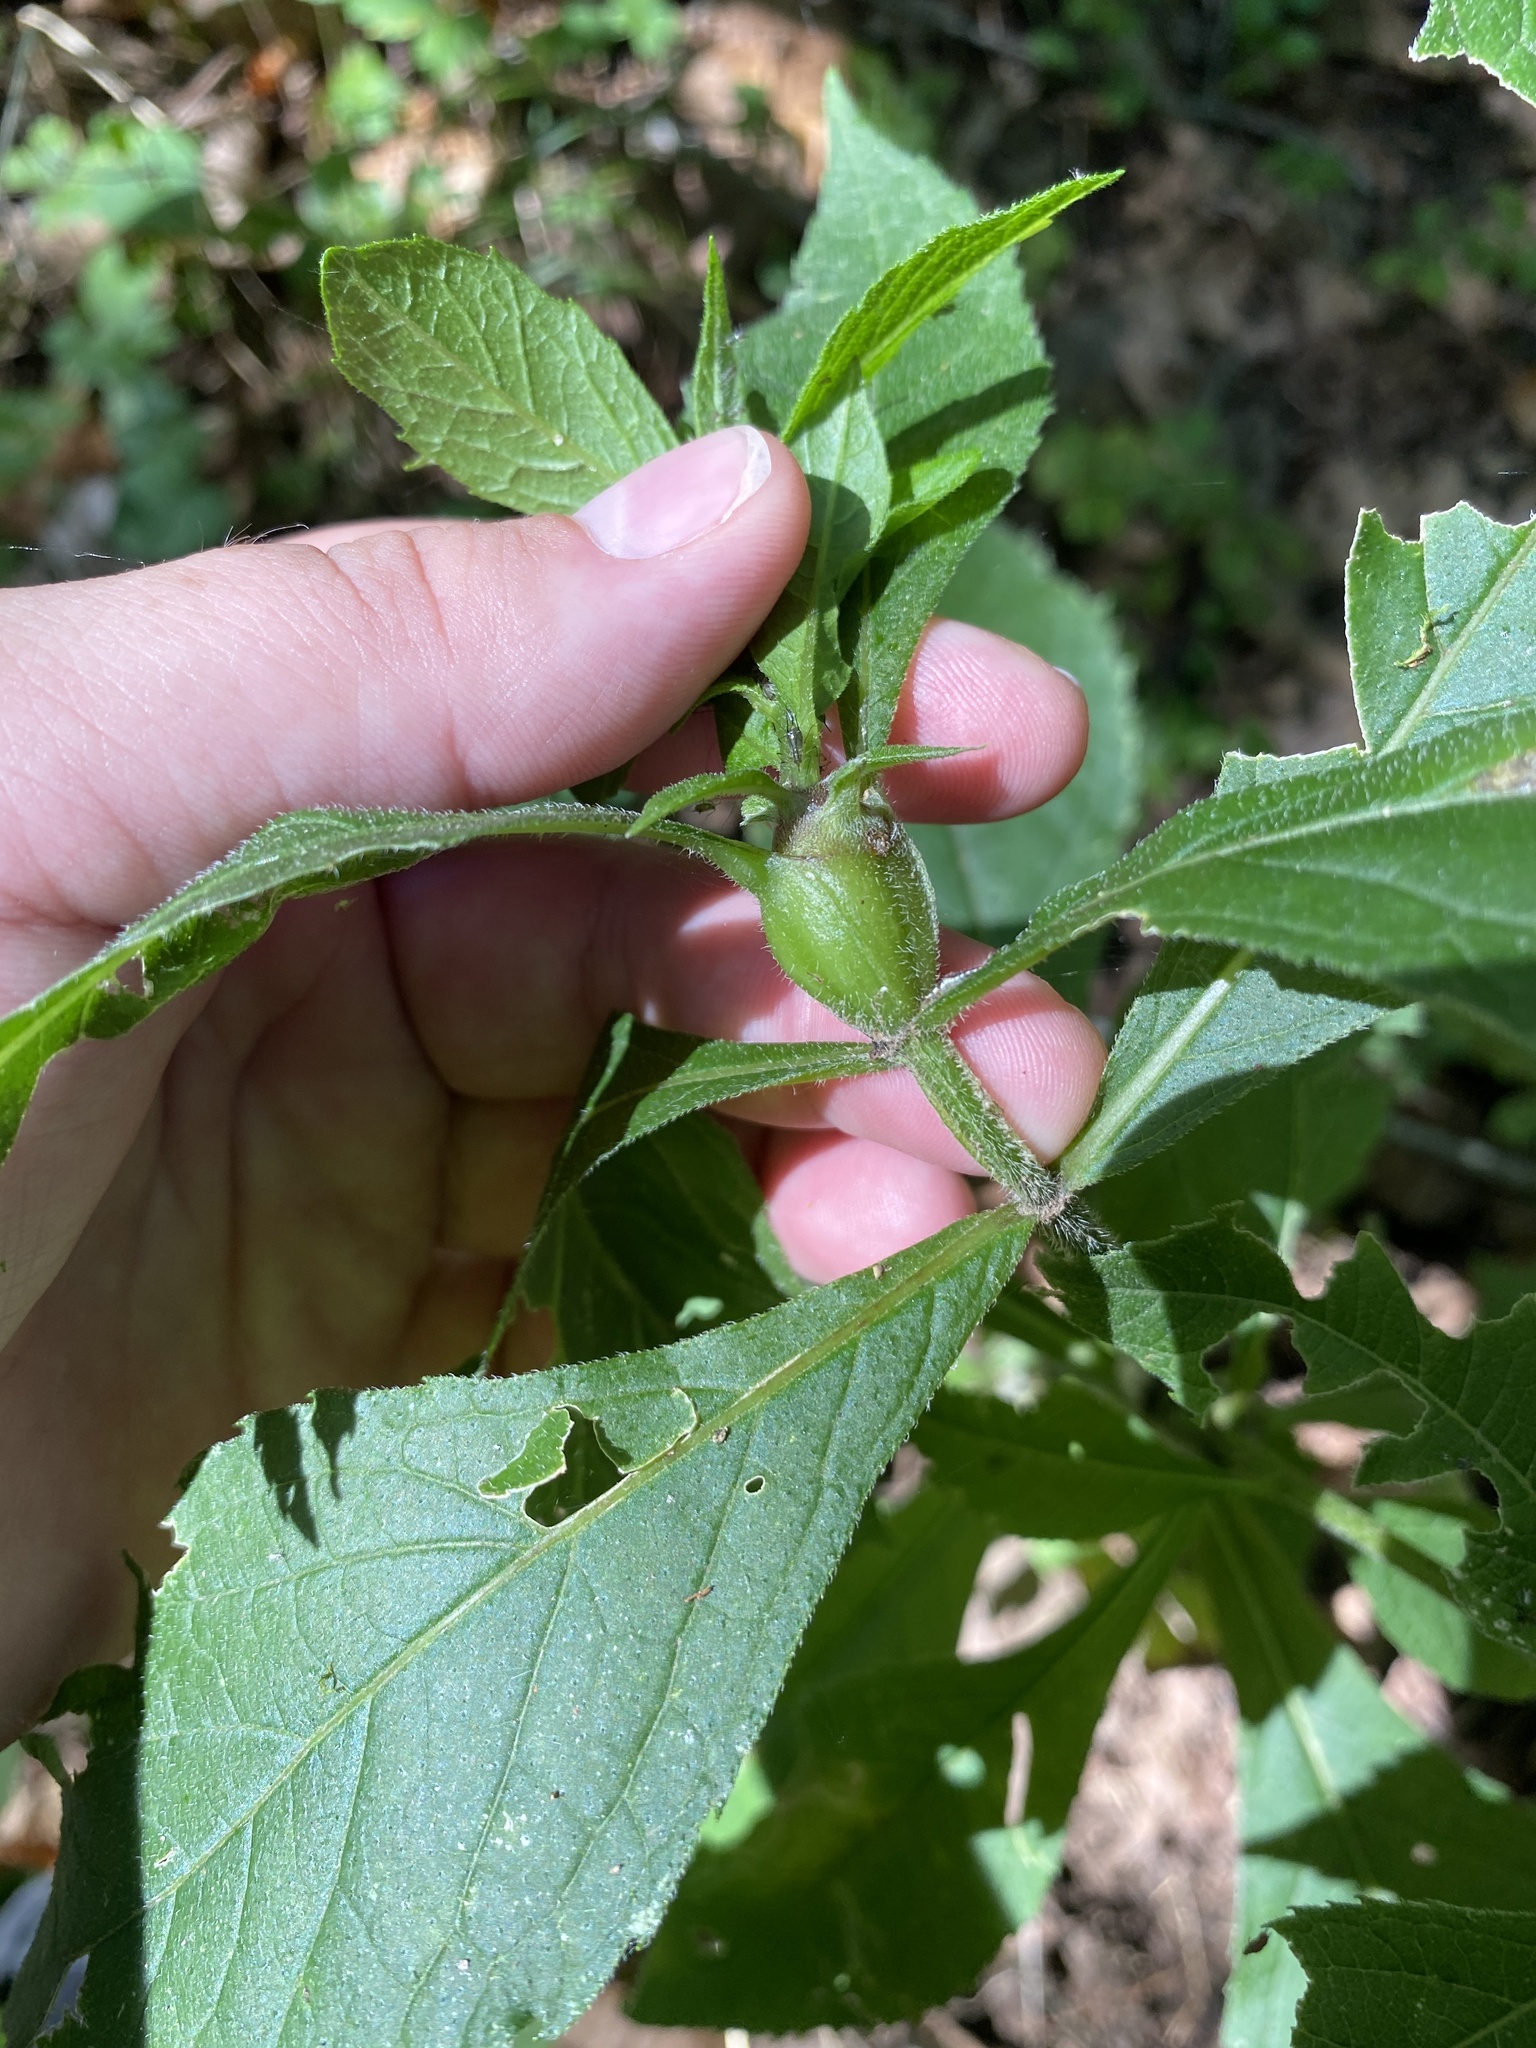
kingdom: Animalia
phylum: Arthropoda
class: Insecta
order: Diptera
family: Cecidomyiidae
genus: Neolasioptera
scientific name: Neolasioptera verbesinae
